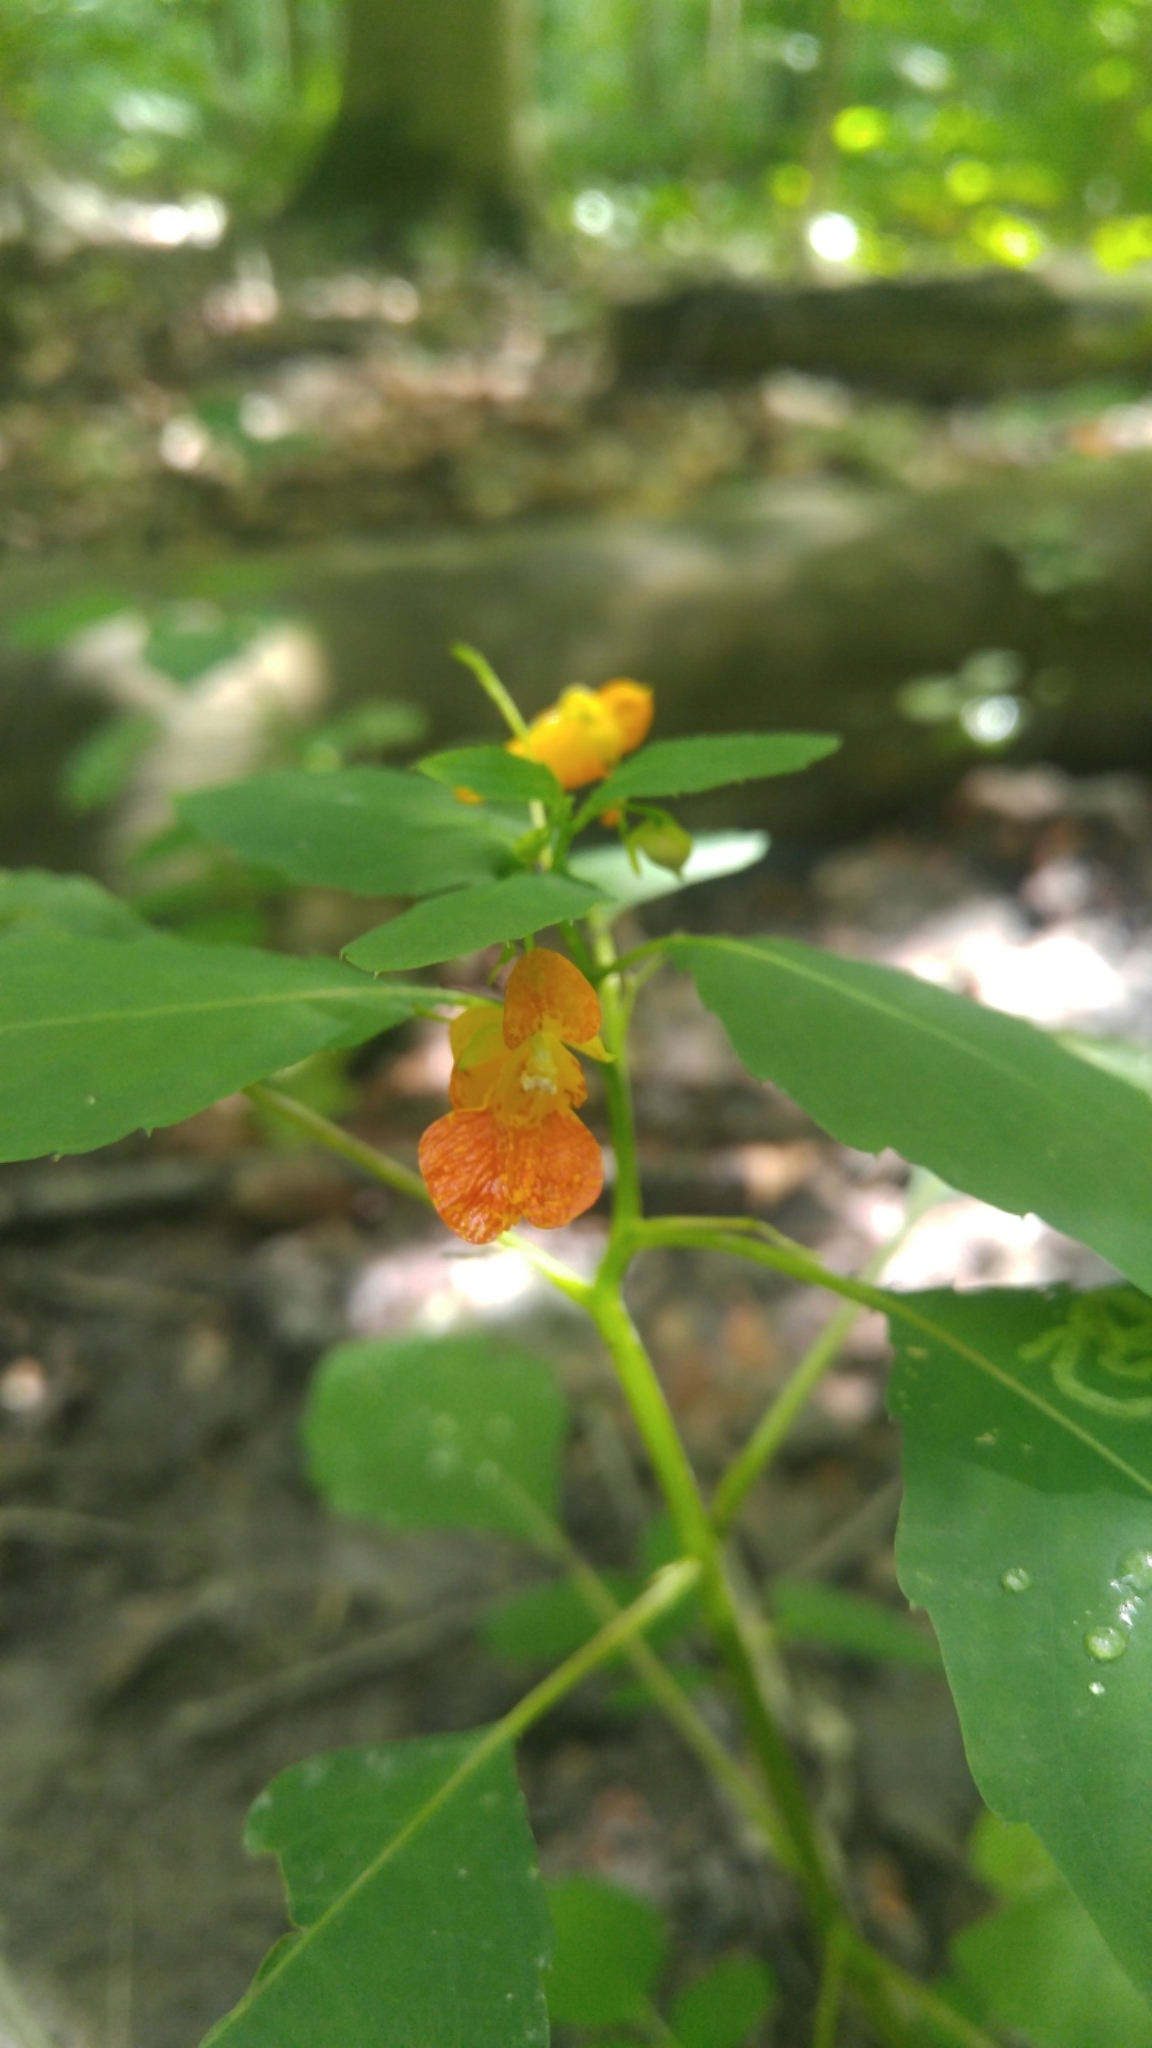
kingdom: Plantae
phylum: Tracheophyta
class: Magnoliopsida
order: Ericales
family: Balsaminaceae
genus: Impatiens
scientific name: Impatiens capensis
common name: Orange balsam
